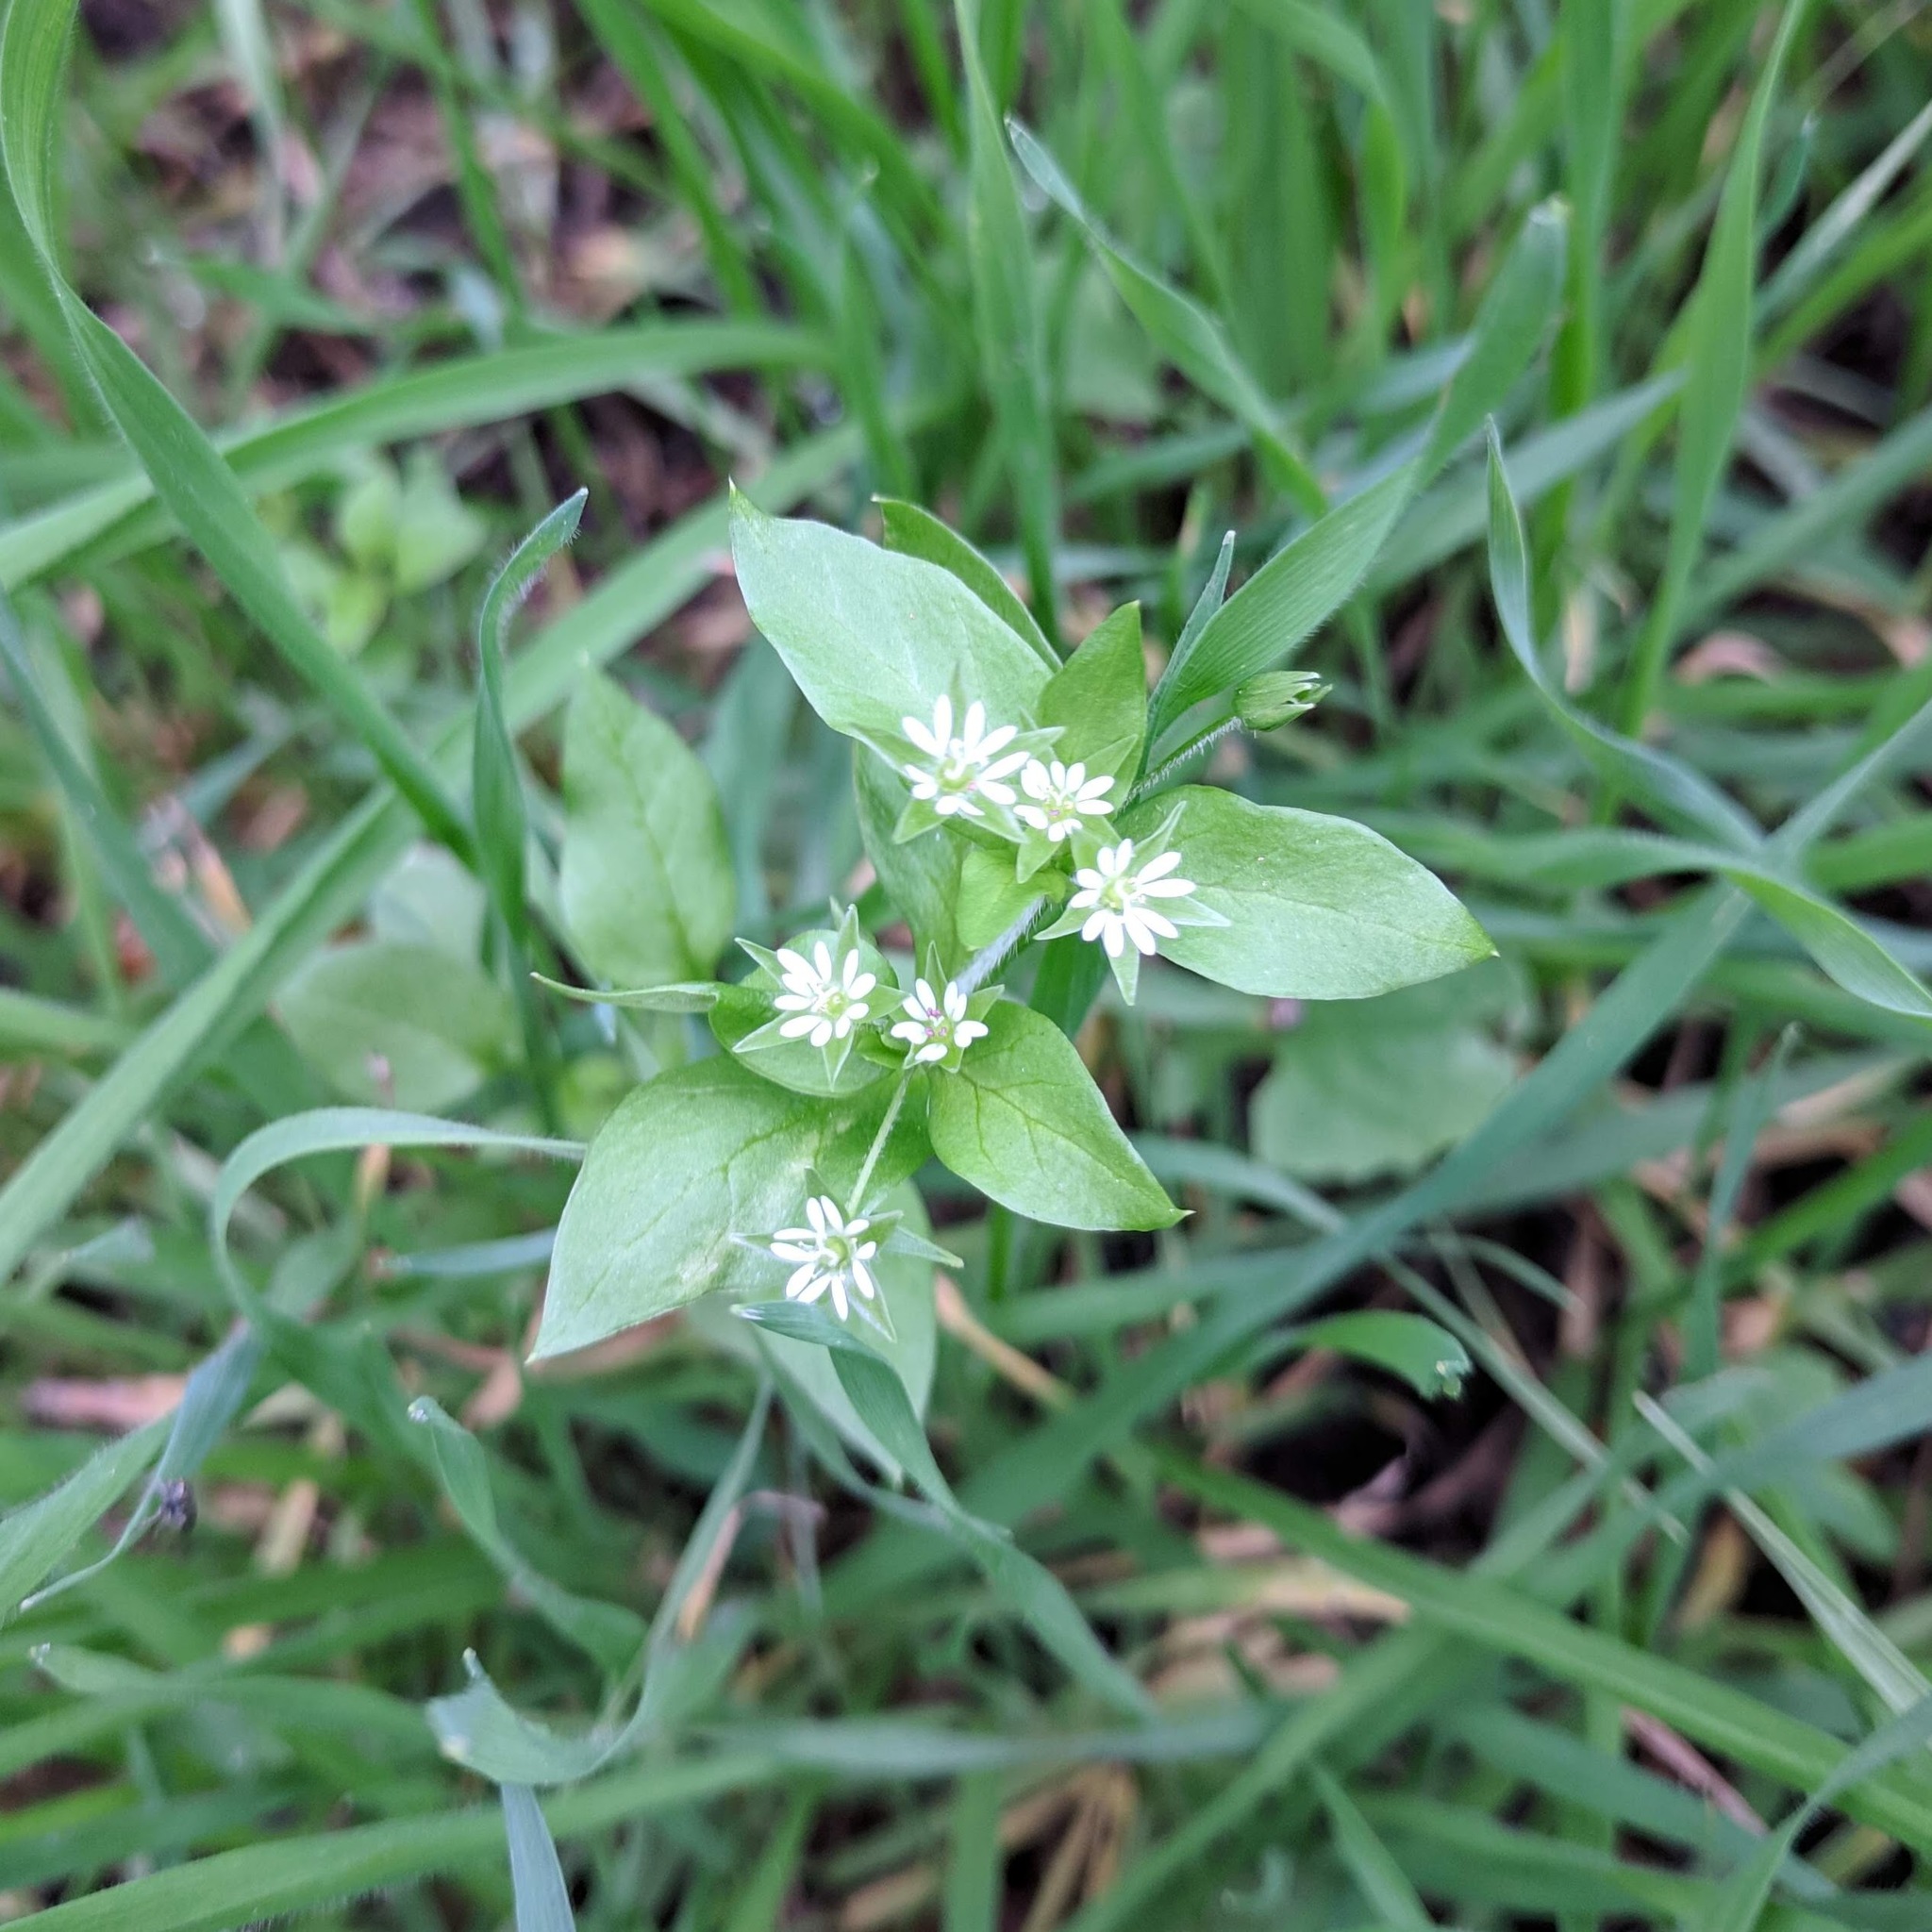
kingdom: Plantae
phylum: Tracheophyta
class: Magnoliopsida
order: Caryophyllales
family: Caryophyllaceae
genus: Stellaria
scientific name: Stellaria media
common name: Common chickweed
